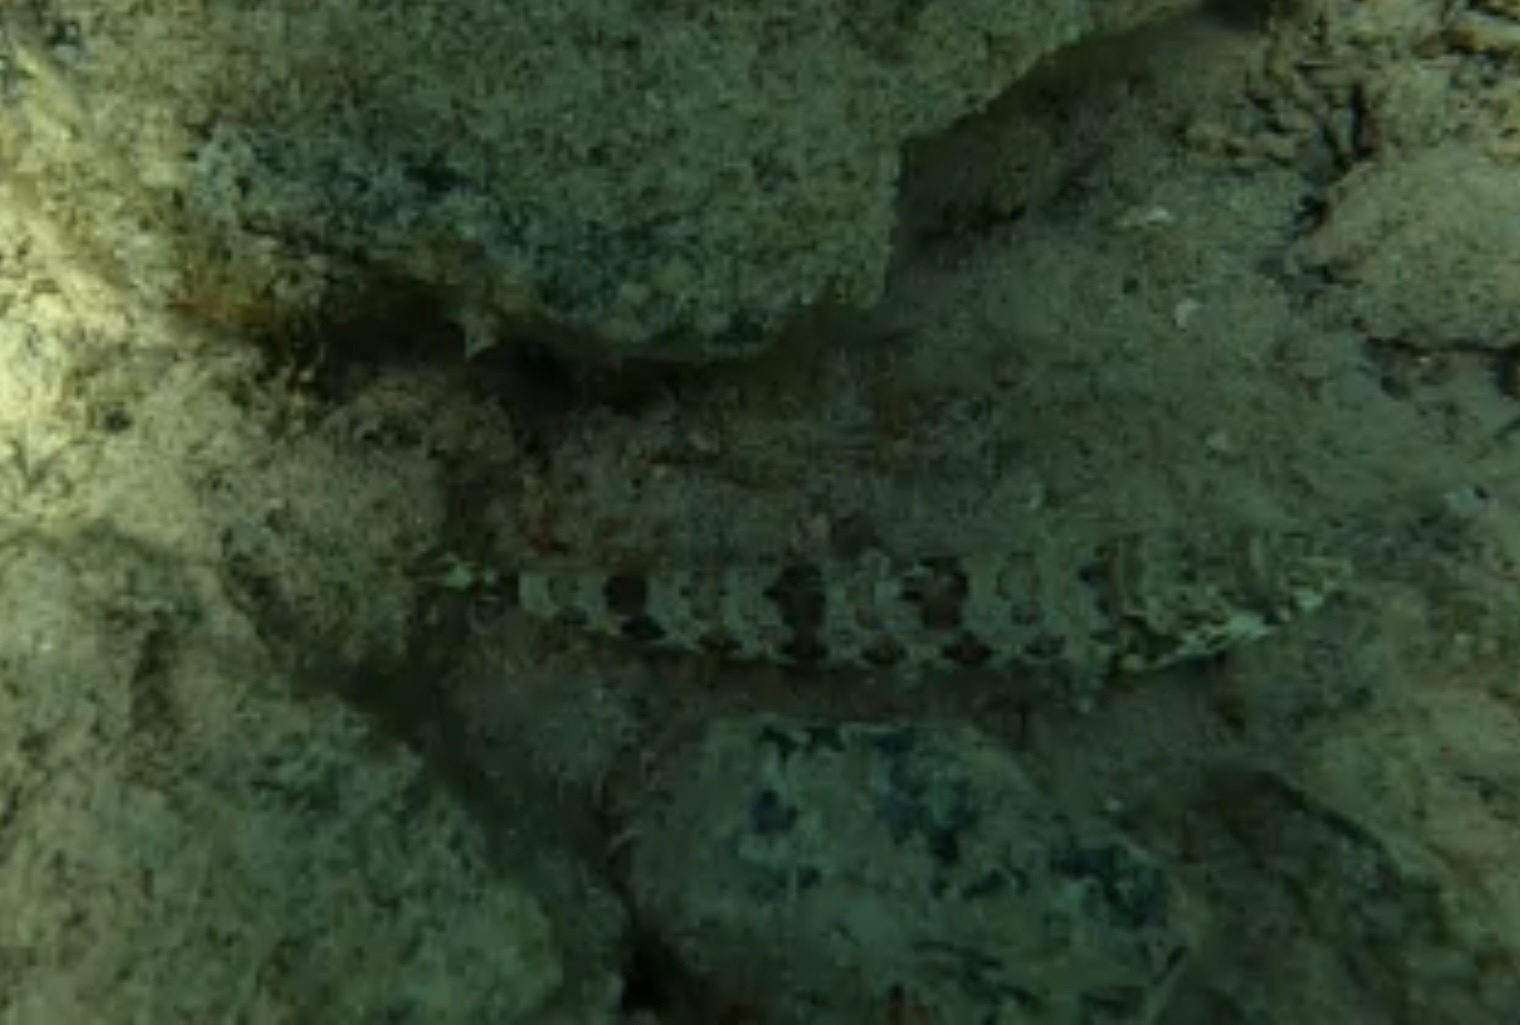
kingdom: Animalia
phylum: Chordata
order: Aulopiformes
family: Synodontidae
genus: Synodus
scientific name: Synodus intermedius
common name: Sand diver
